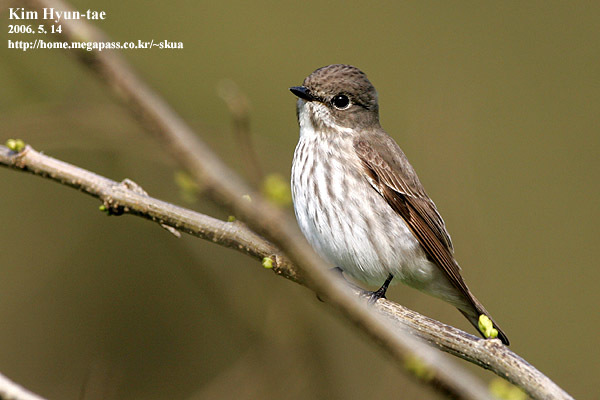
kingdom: Animalia
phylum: Chordata
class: Aves
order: Passeriformes
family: Muscicapidae
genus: Muscicapa
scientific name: Muscicapa griseisticta
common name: Gray-streaked flycatcher
